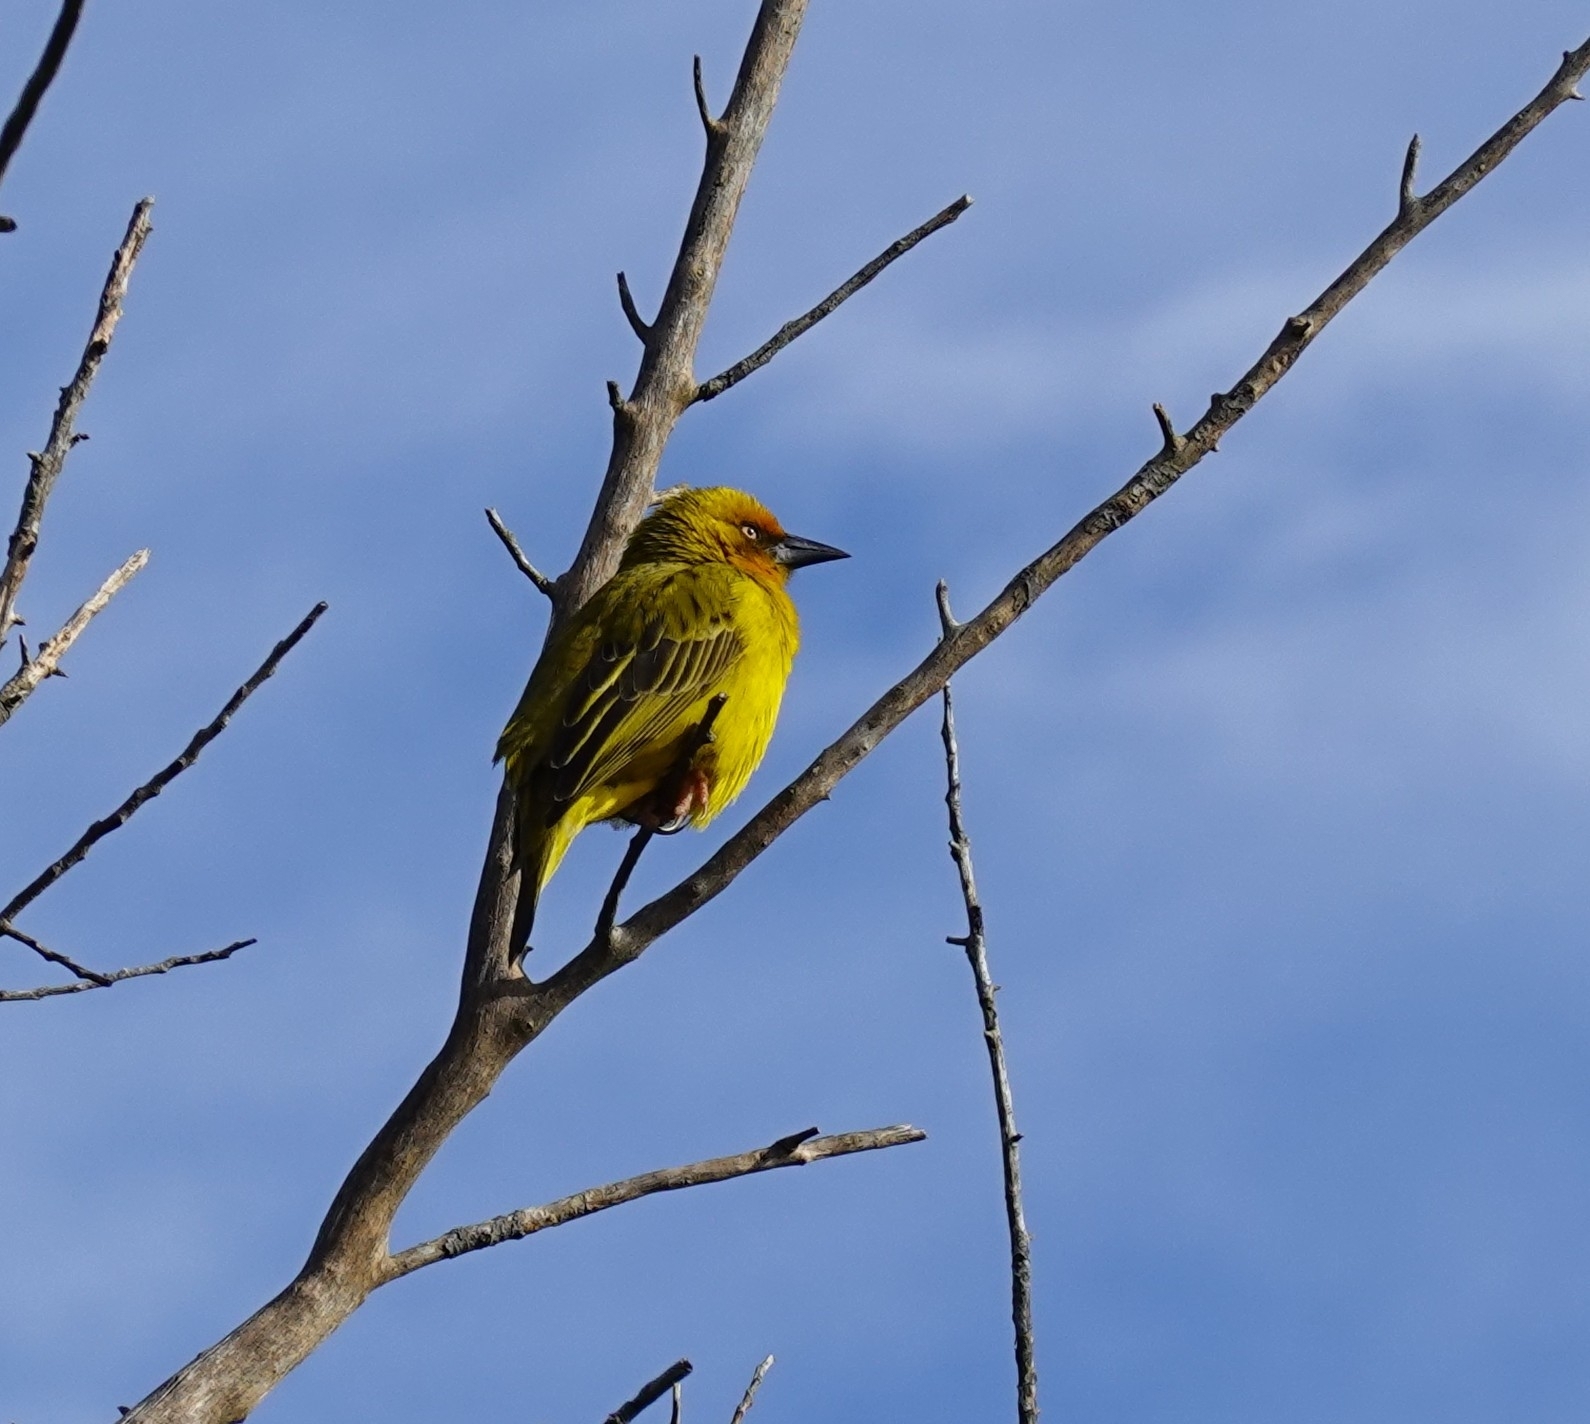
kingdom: Animalia
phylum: Chordata
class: Aves
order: Passeriformes
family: Ploceidae
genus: Ploceus
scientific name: Ploceus capensis
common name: Cape weaver
